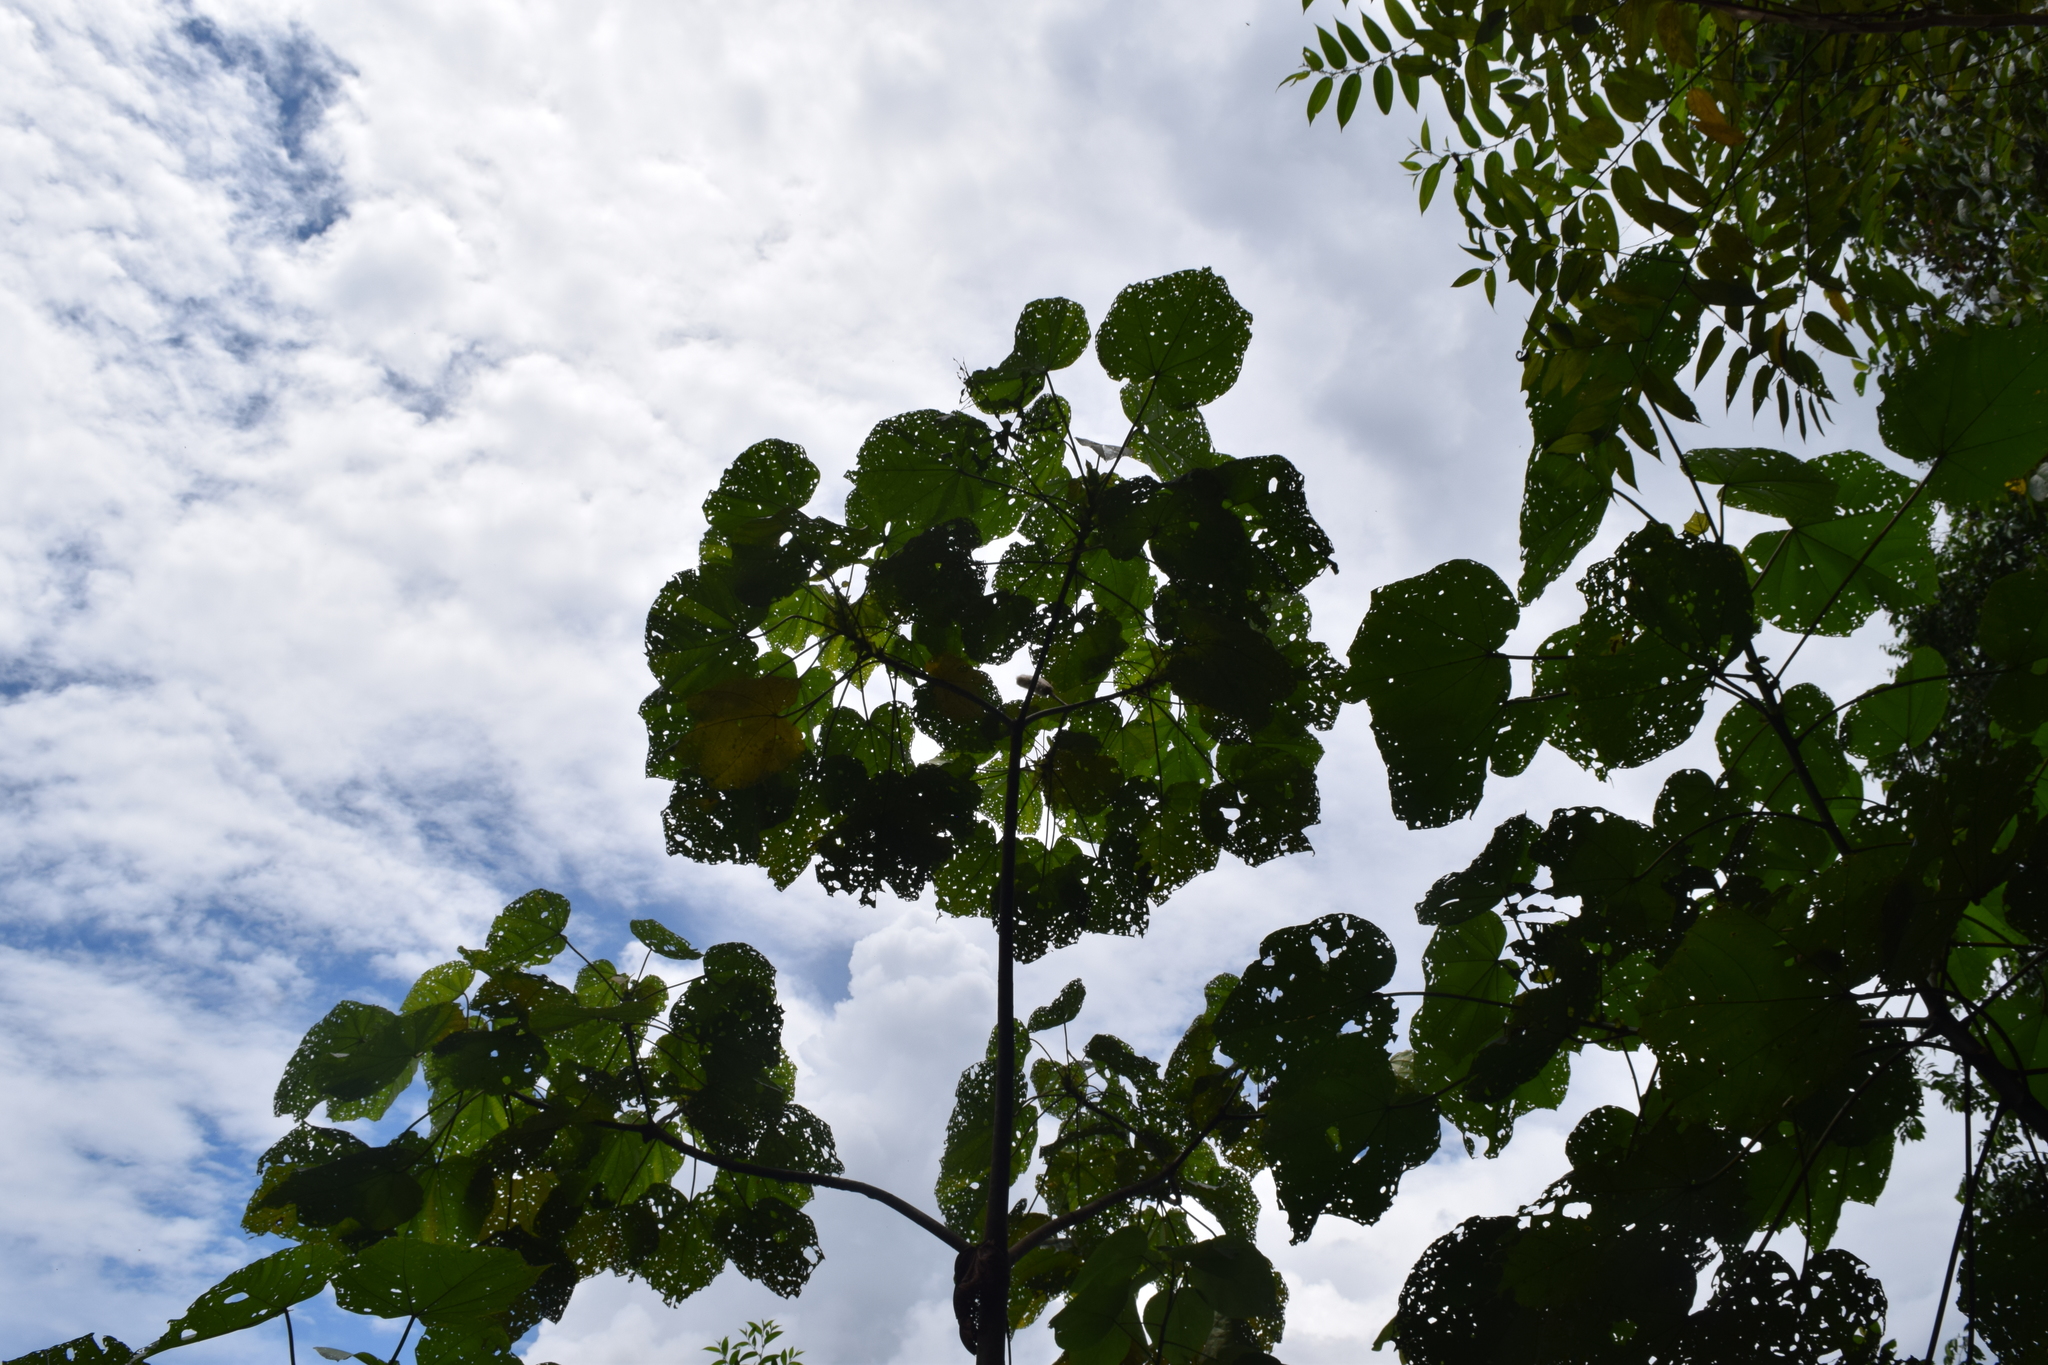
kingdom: Plantae
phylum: Tracheophyta
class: Magnoliopsida
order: Malvales
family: Malvaceae
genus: Ochroma
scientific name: Ochroma pyramidale
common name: Balsa
